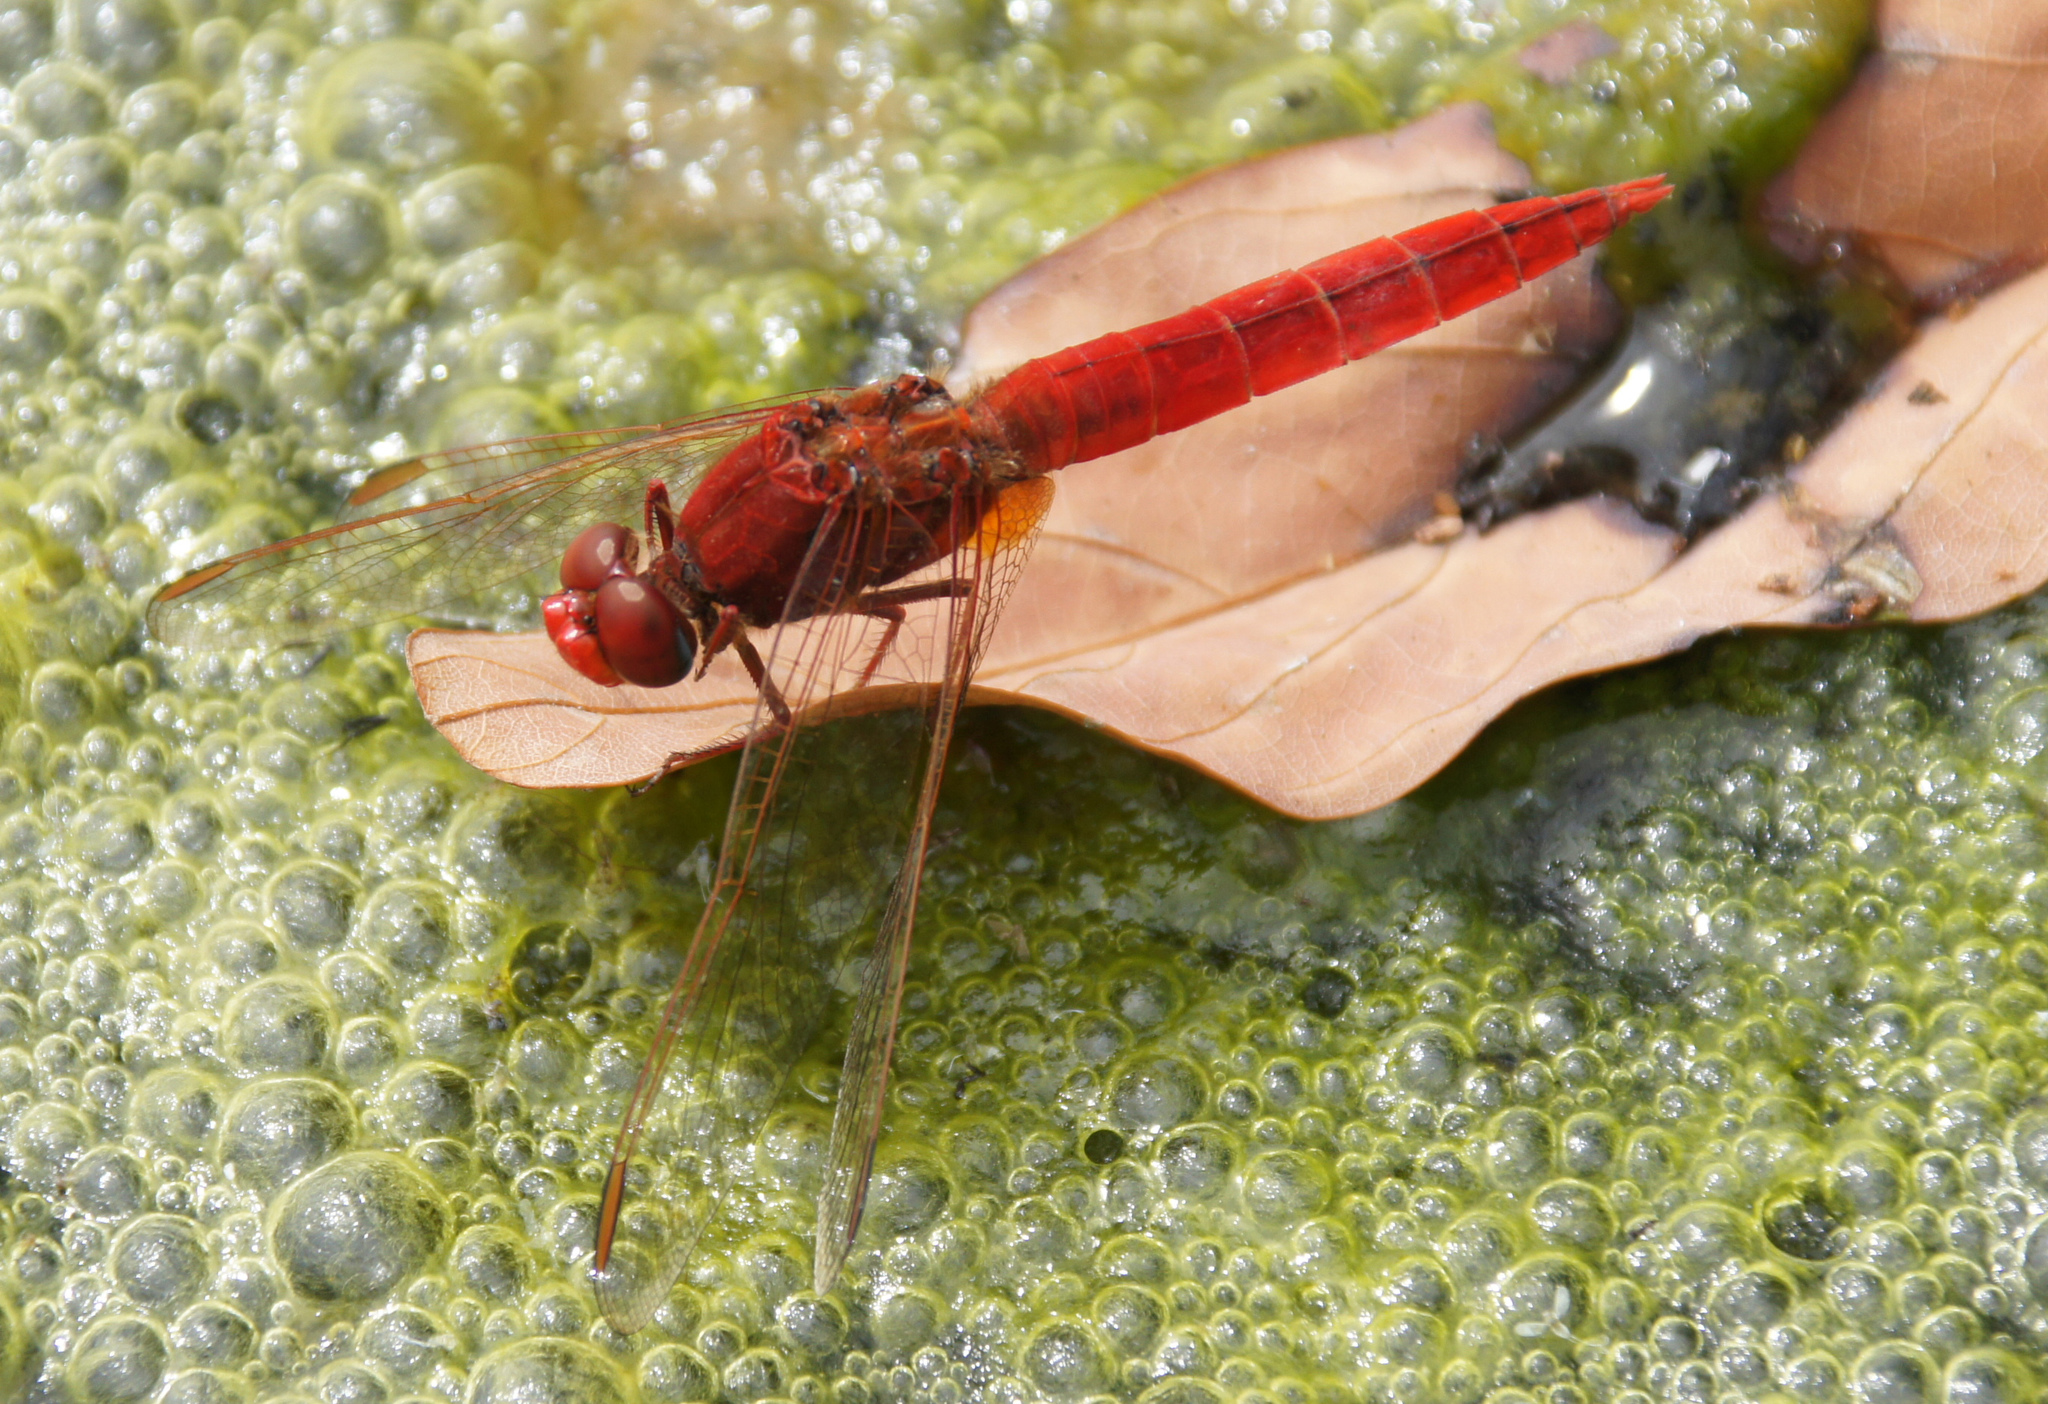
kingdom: Animalia
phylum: Arthropoda
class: Insecta
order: Odonata
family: Libellulidae
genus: Crocothemis
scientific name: Crocothemis erythraea
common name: Scarlet dragonfly
